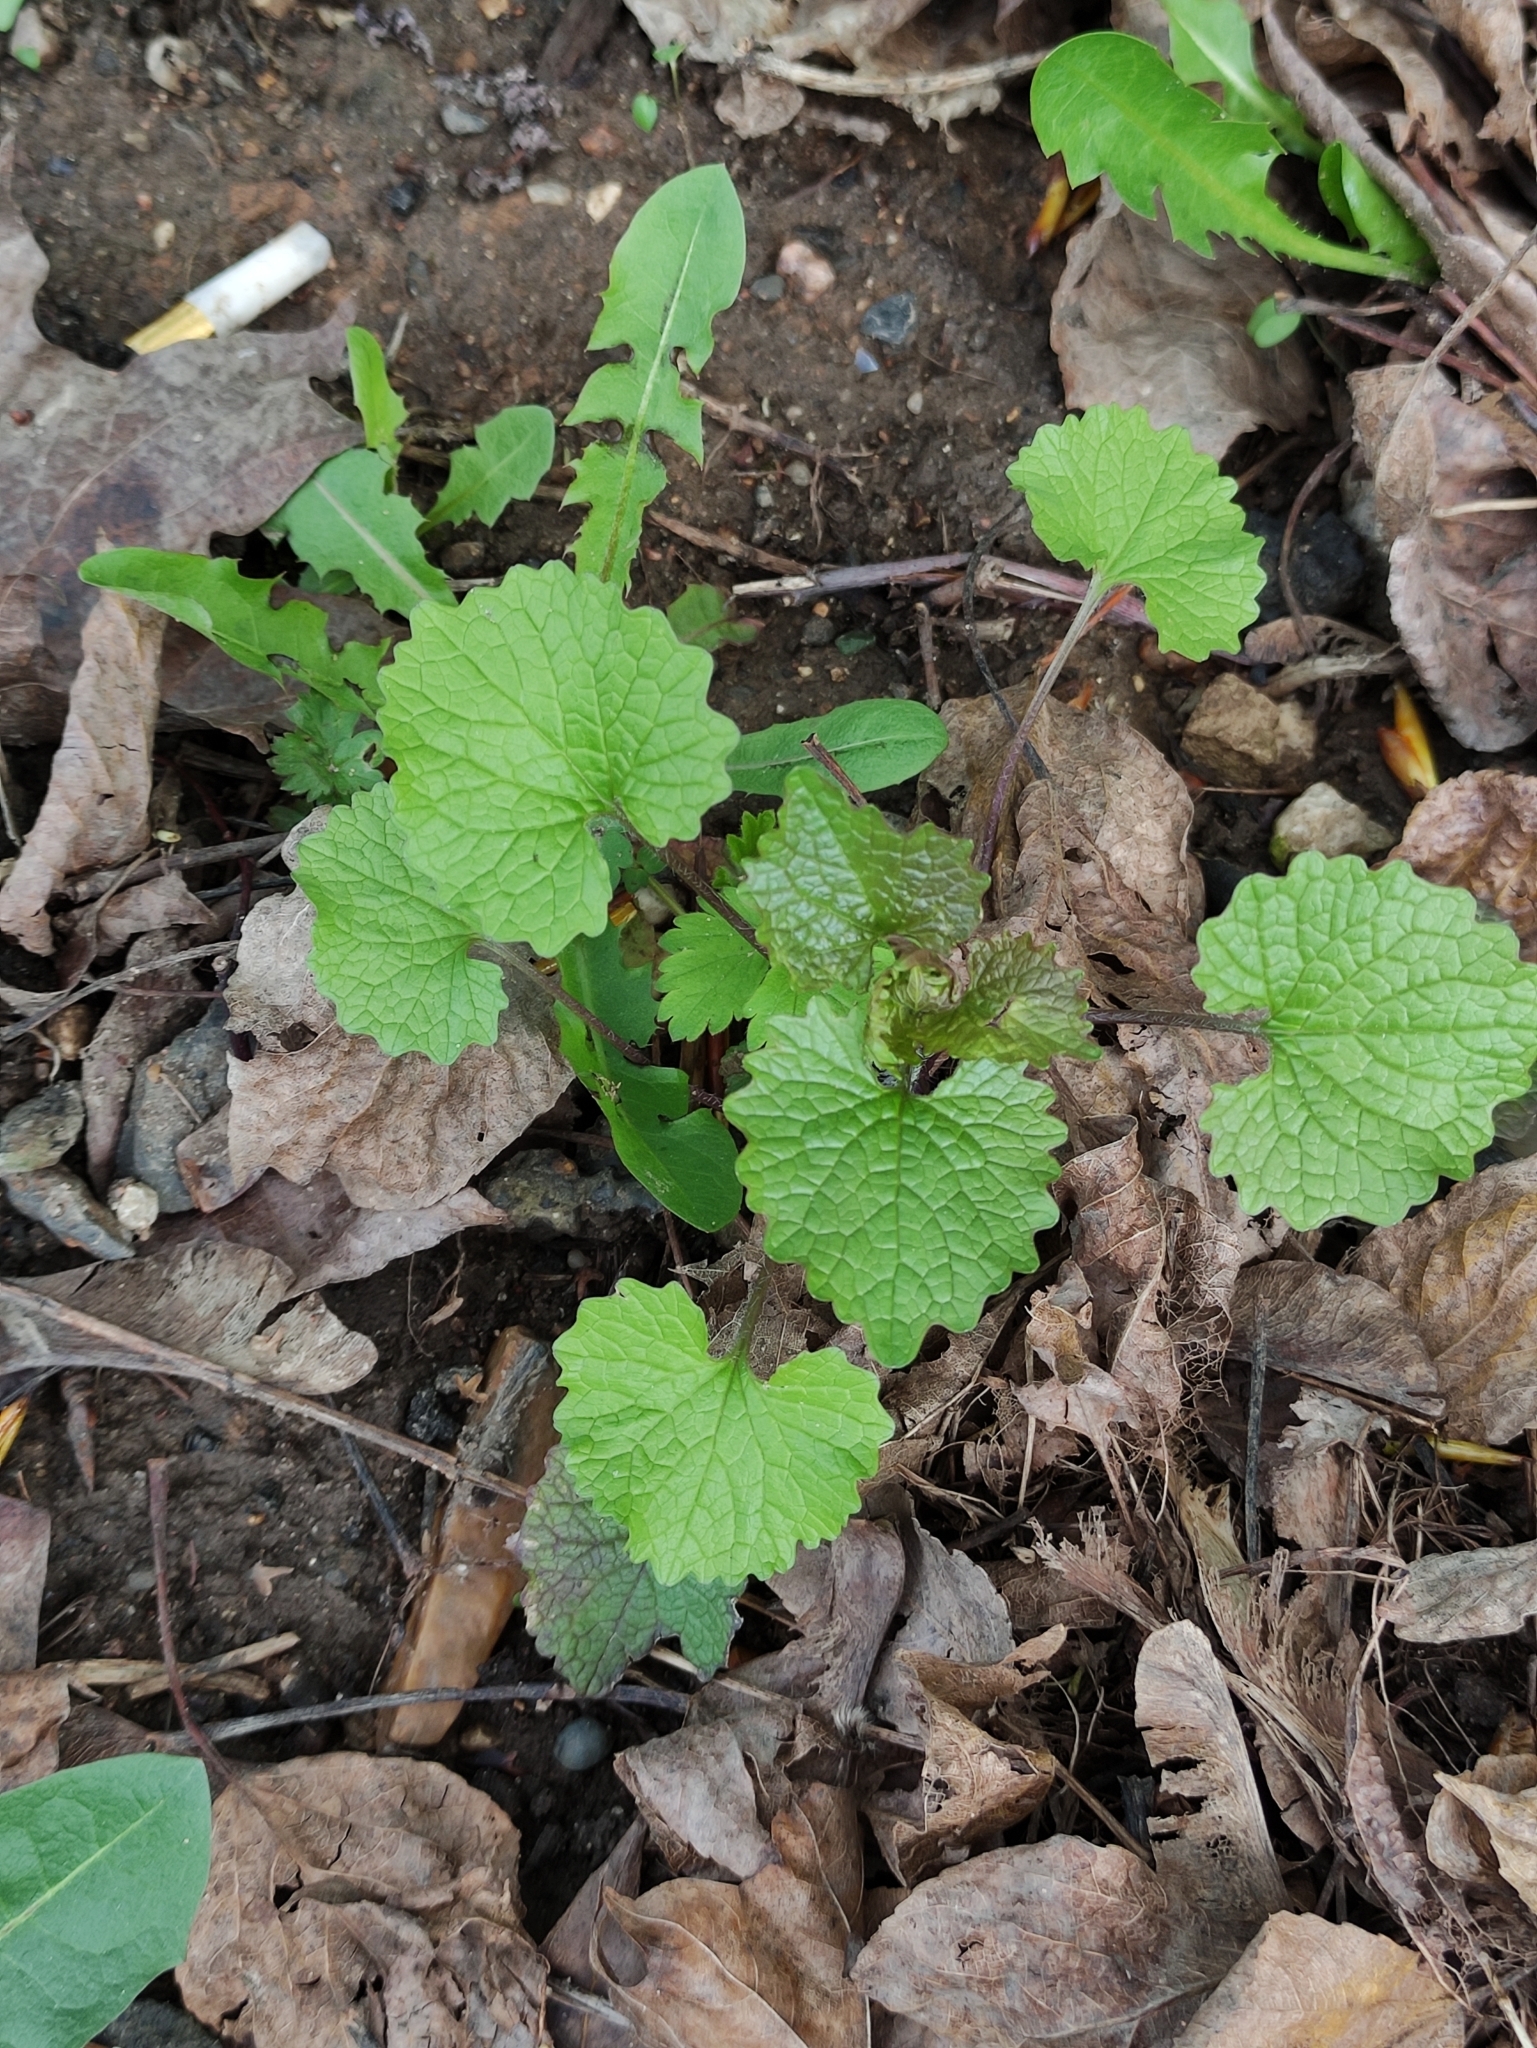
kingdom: Plantae
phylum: Tracheophyta
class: Magnoliopsida
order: Brassicales
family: Brassicaceae
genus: Alliaria
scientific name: Alliaria petiolata
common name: Garlic mustard
